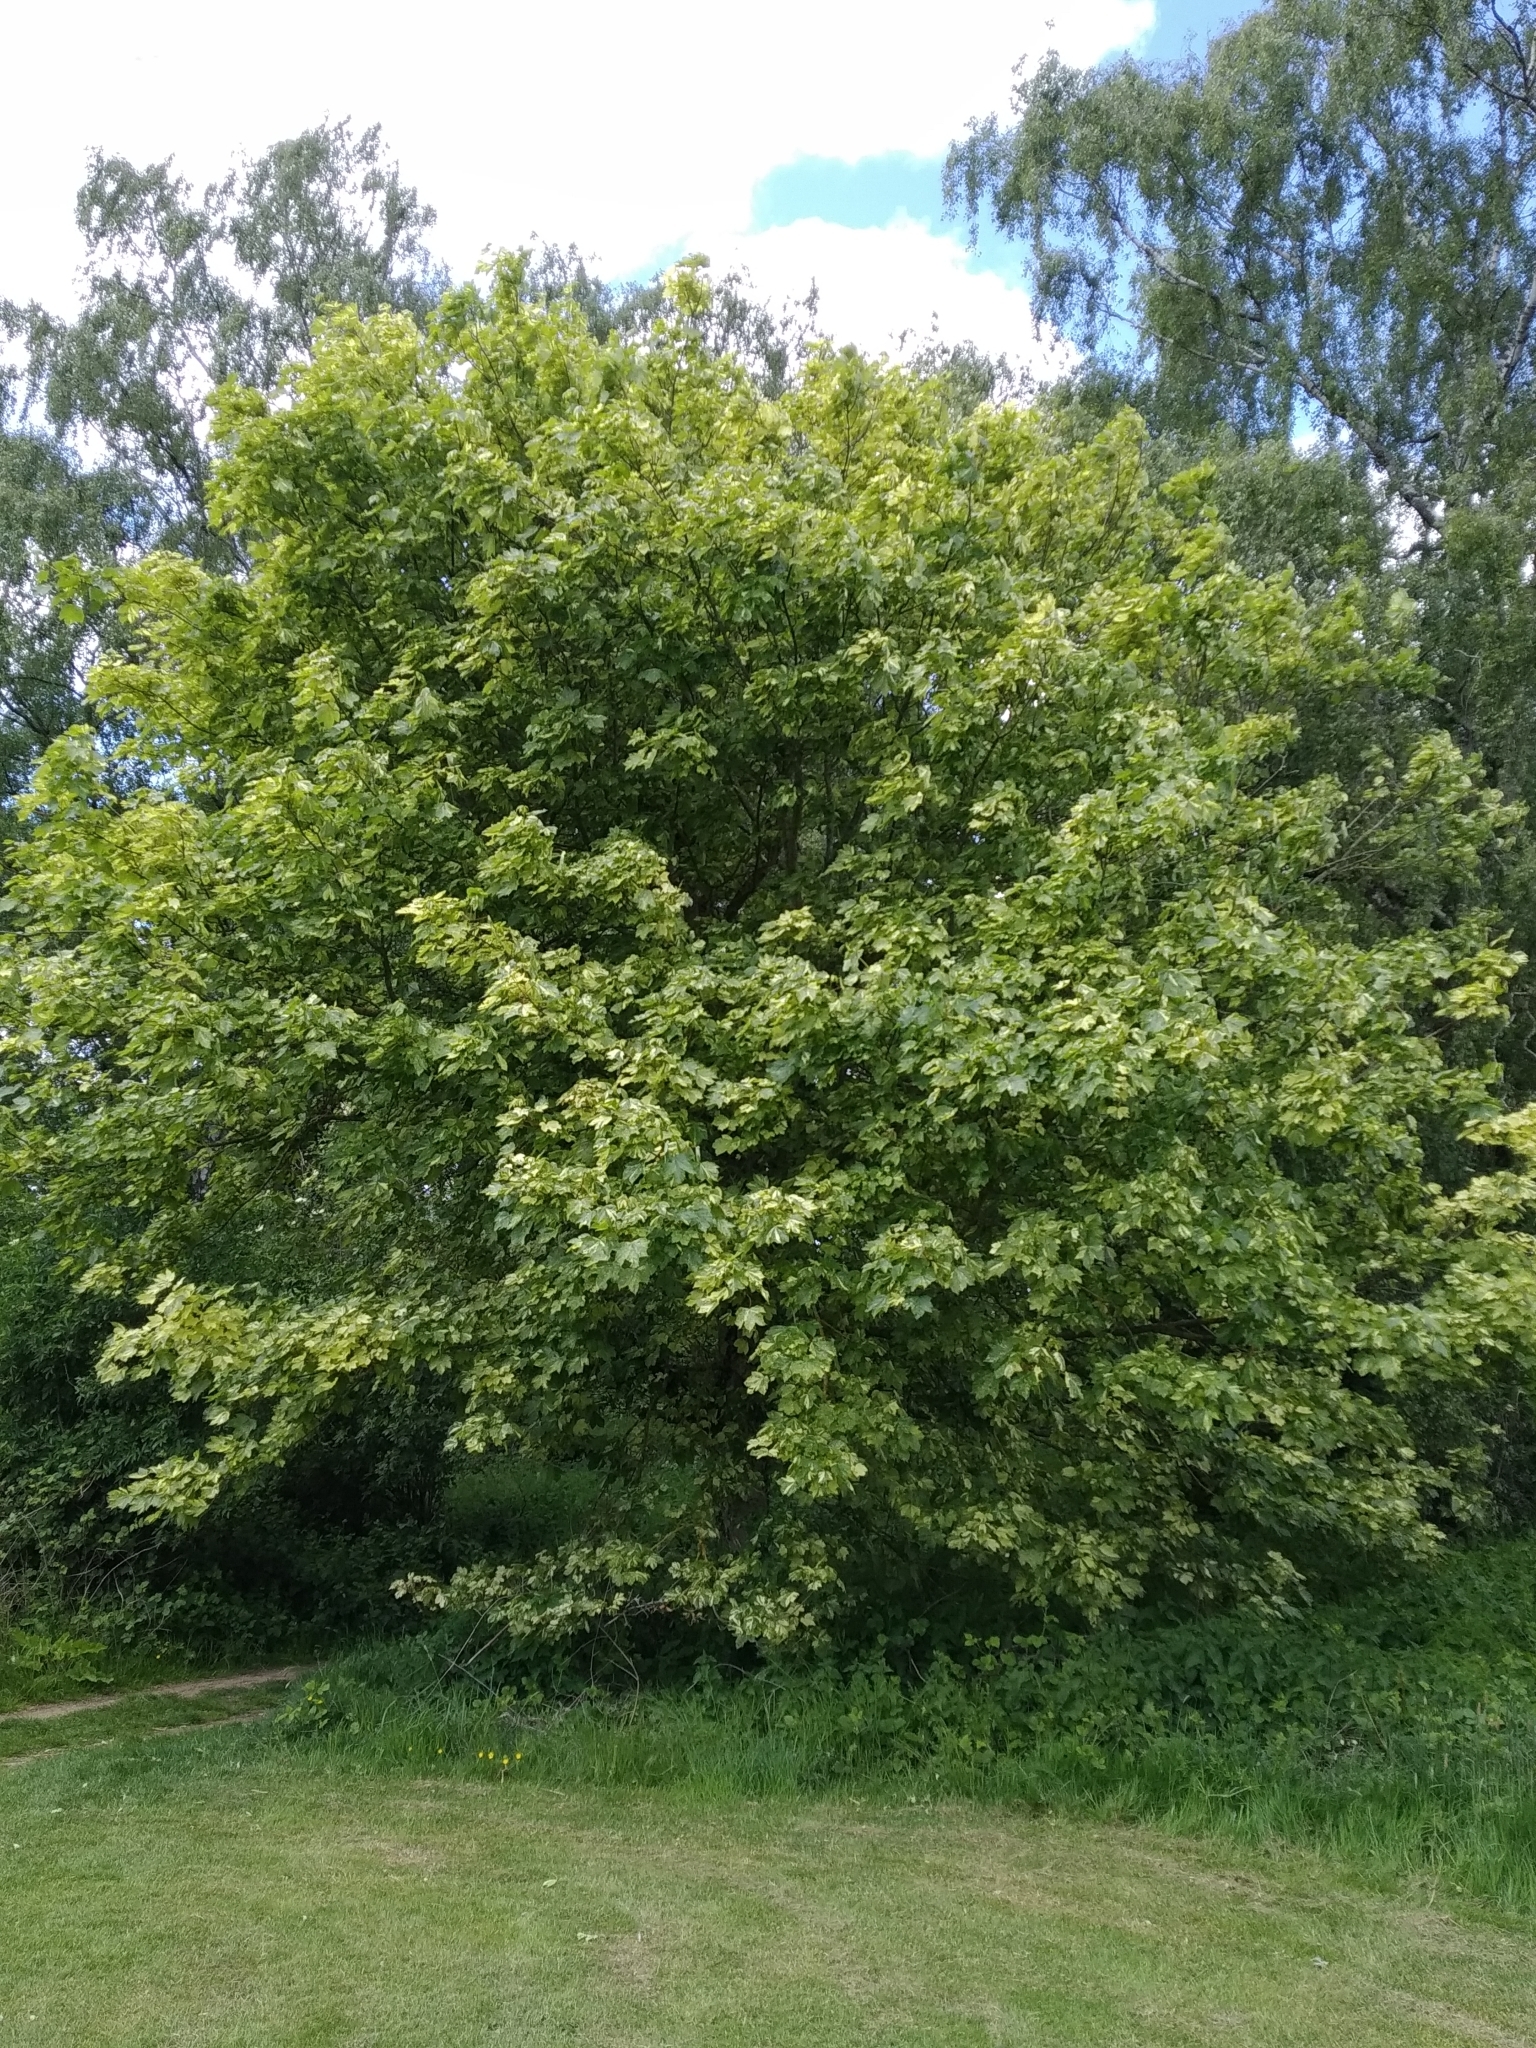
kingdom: Plantae
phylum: Tracheophyta
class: Magnoliopsida
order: Sapindales
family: Sapindaceae
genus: Acer
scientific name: Acer pseudoplatanus
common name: Sycamore
